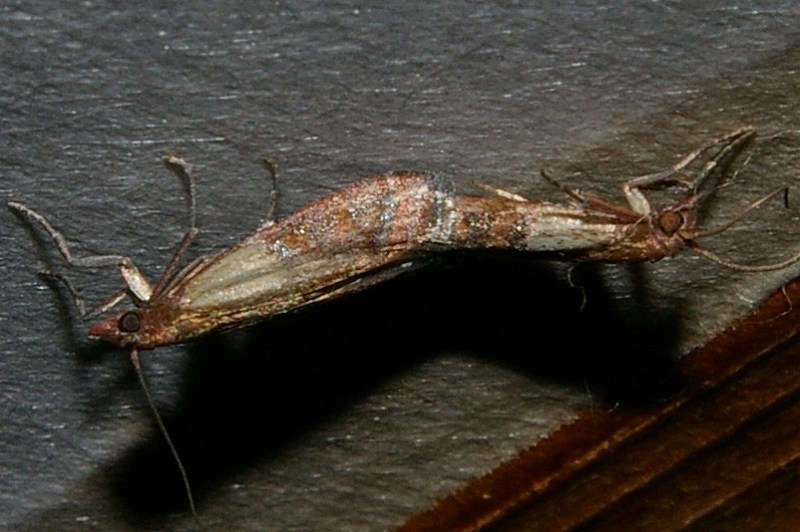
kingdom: Animalia
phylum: Arthropoda
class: Insecta
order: Lepidoptera
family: Pyralidae
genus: Plodia
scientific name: Plodia interpunctella
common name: Indian meal moth
